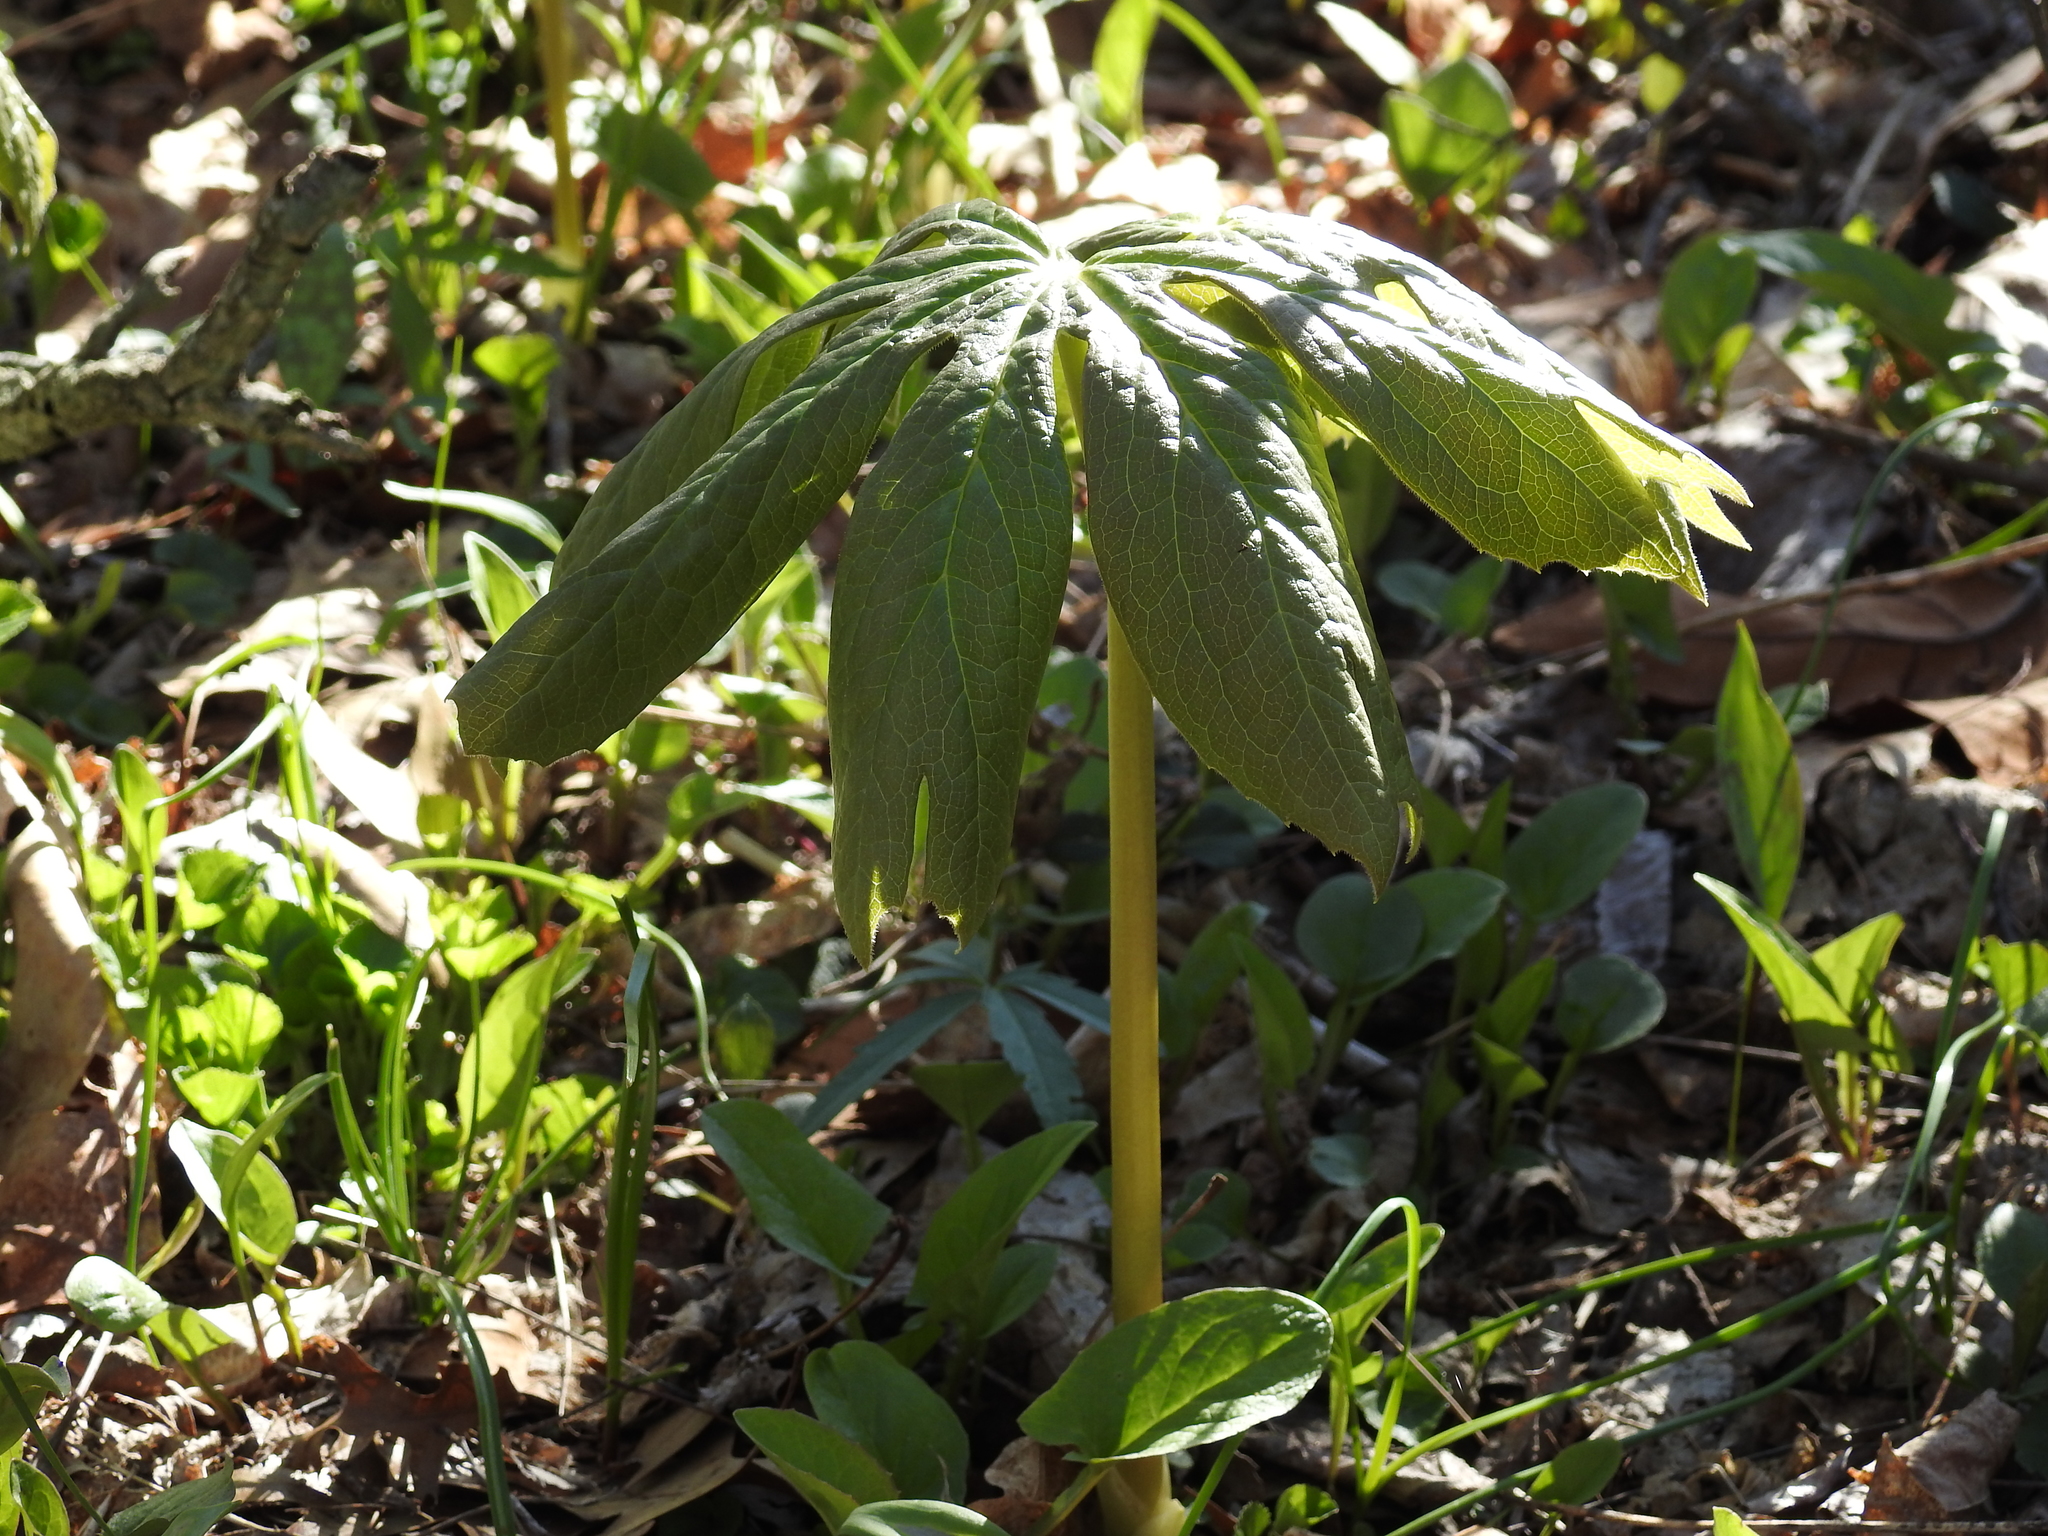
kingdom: Plantae
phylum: Tracheophyta
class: Magnoliopsida
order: Ranunculales
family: Berberidaceae
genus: Podophyllum
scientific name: Podophyllum peltatum
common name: Wild mandrake
